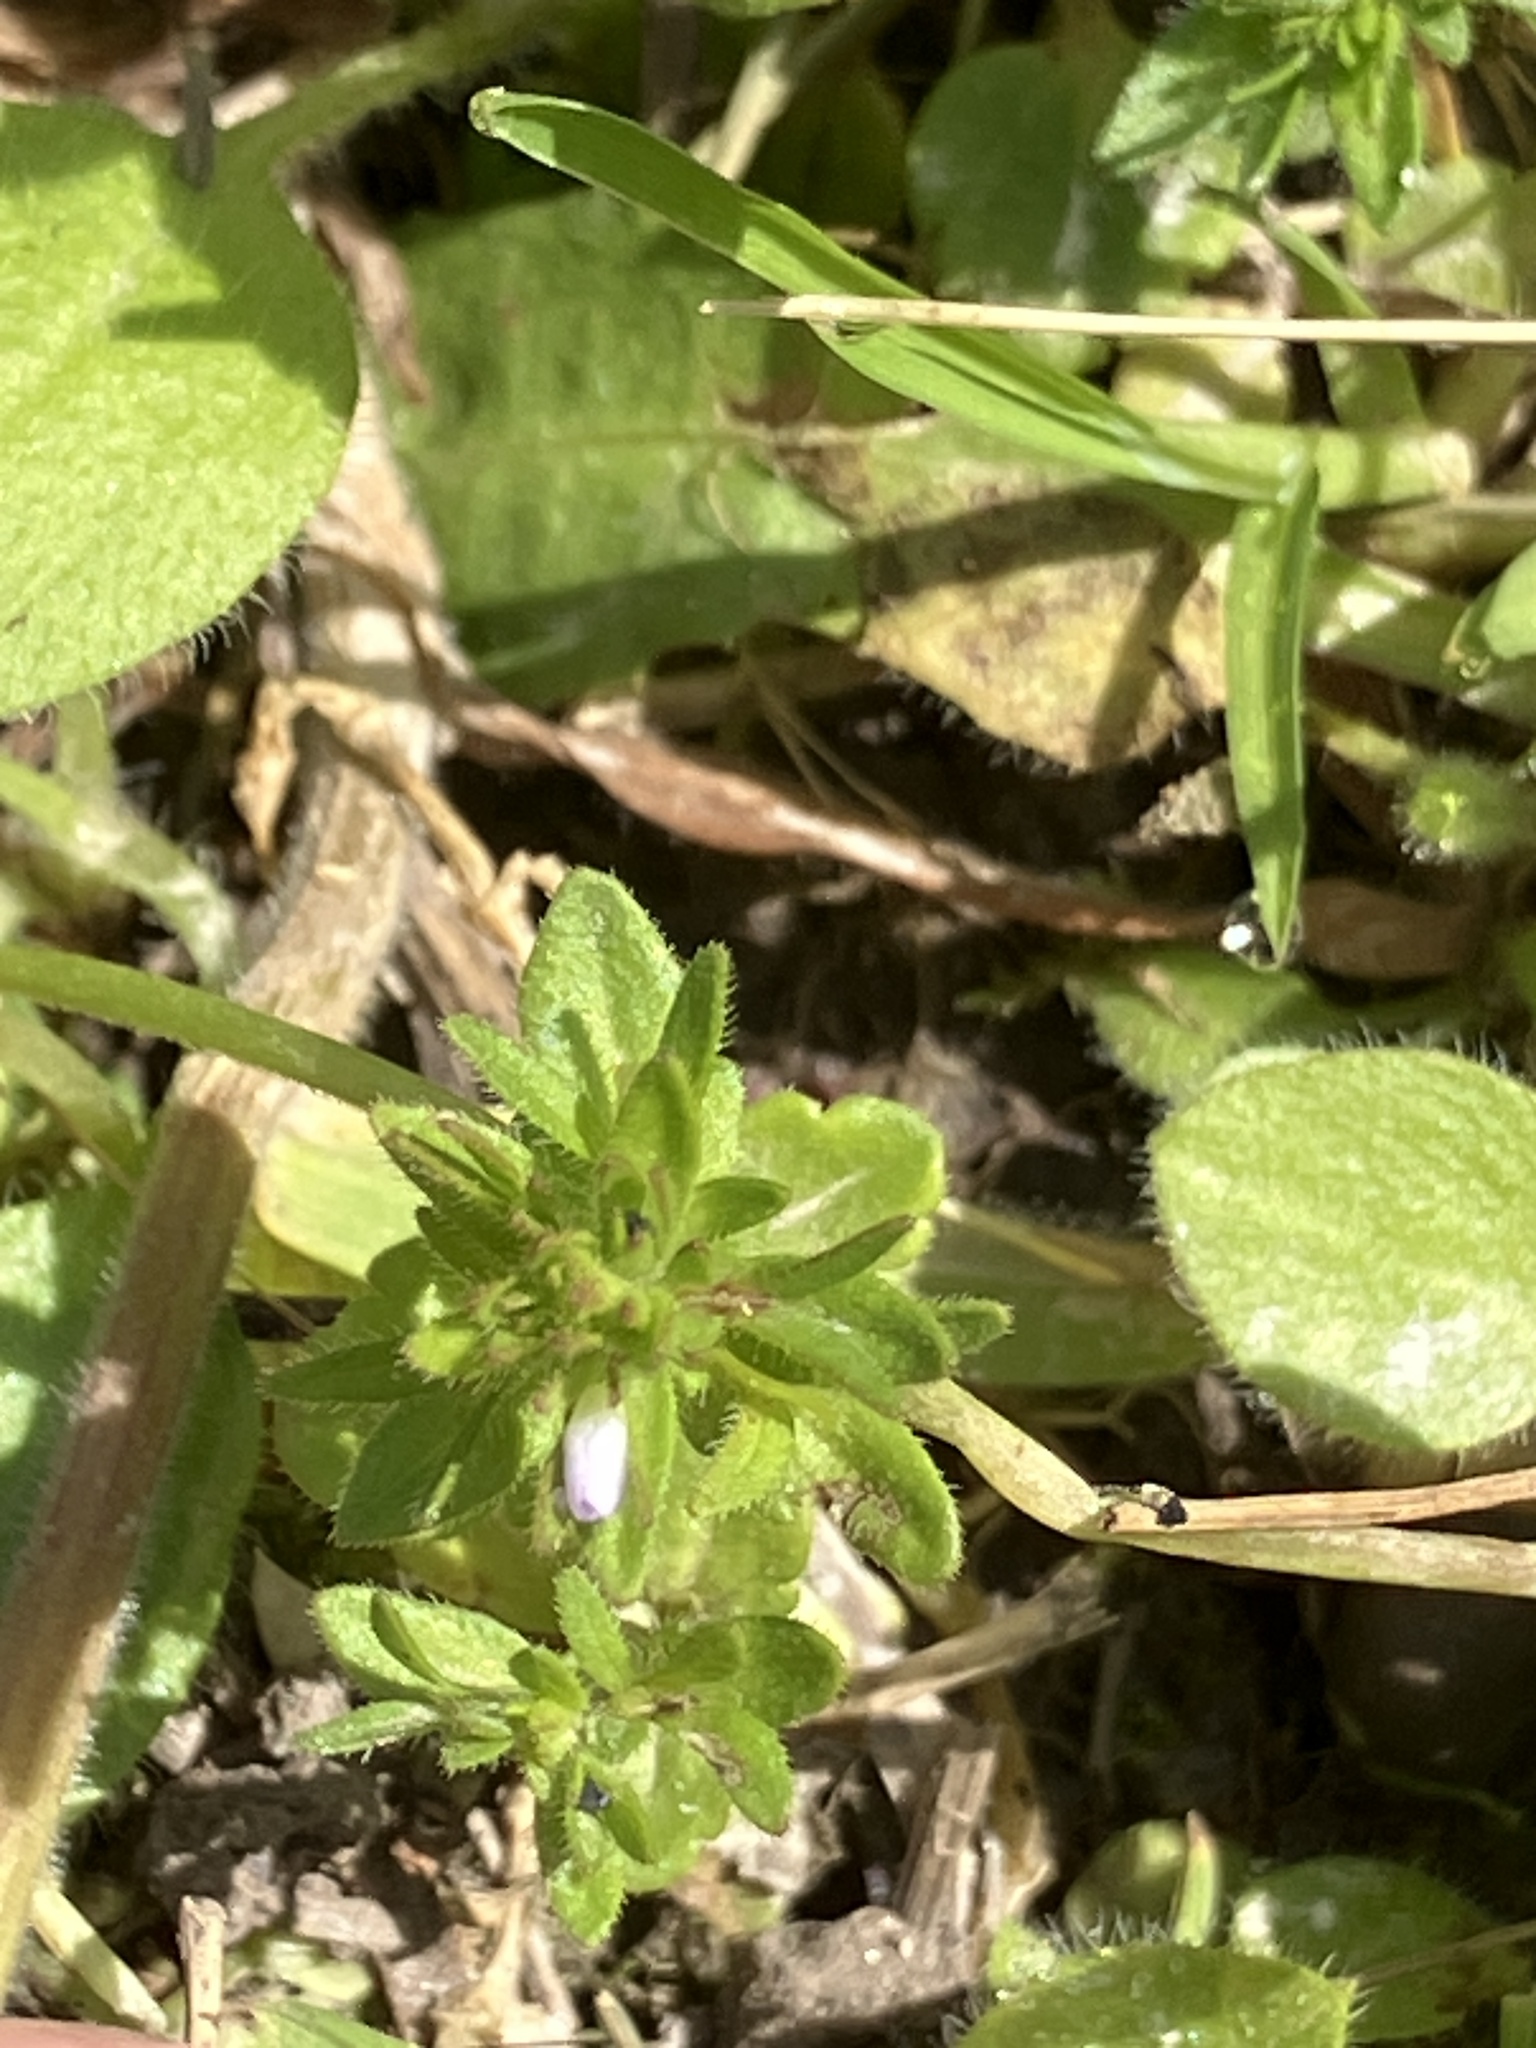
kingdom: Plantae
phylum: Tracheophyta
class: Magnoliopsida
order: Lamiales
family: Plantaginaceae
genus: Veronica
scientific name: Veronica arvensis
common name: Corn speedwell
